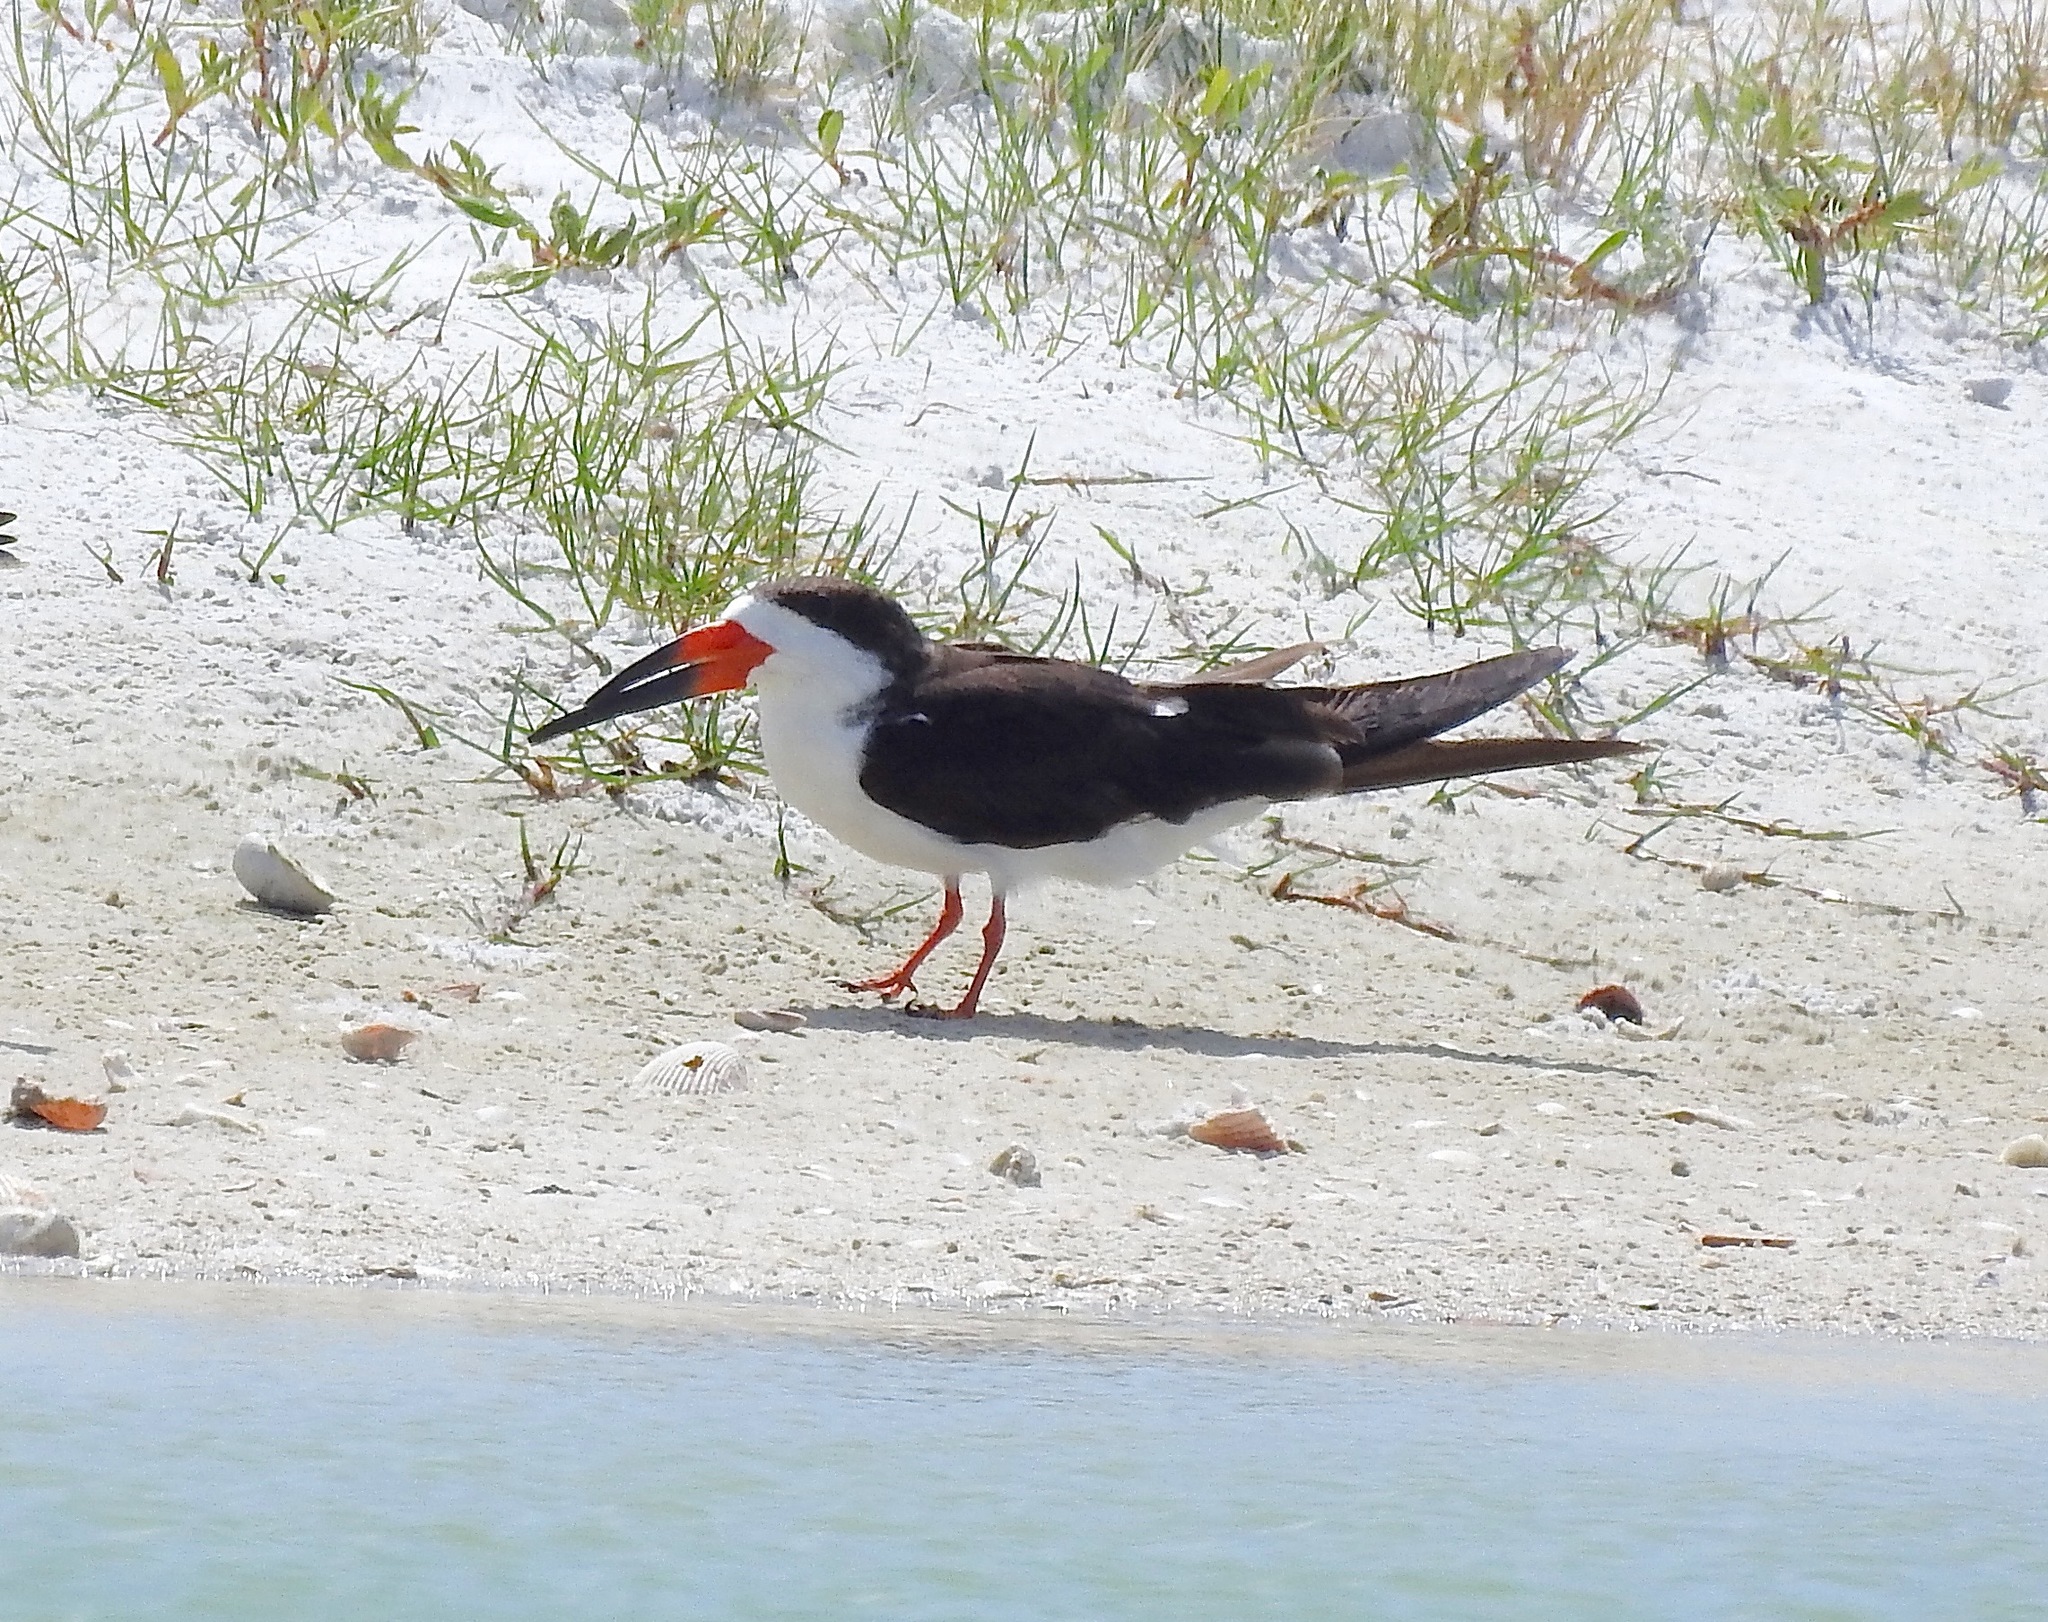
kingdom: Animalia
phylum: Chordata
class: Aves
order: Charadriiformes
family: Laridae
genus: Rynchops
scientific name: Rynchops niger
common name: Black skimmer
